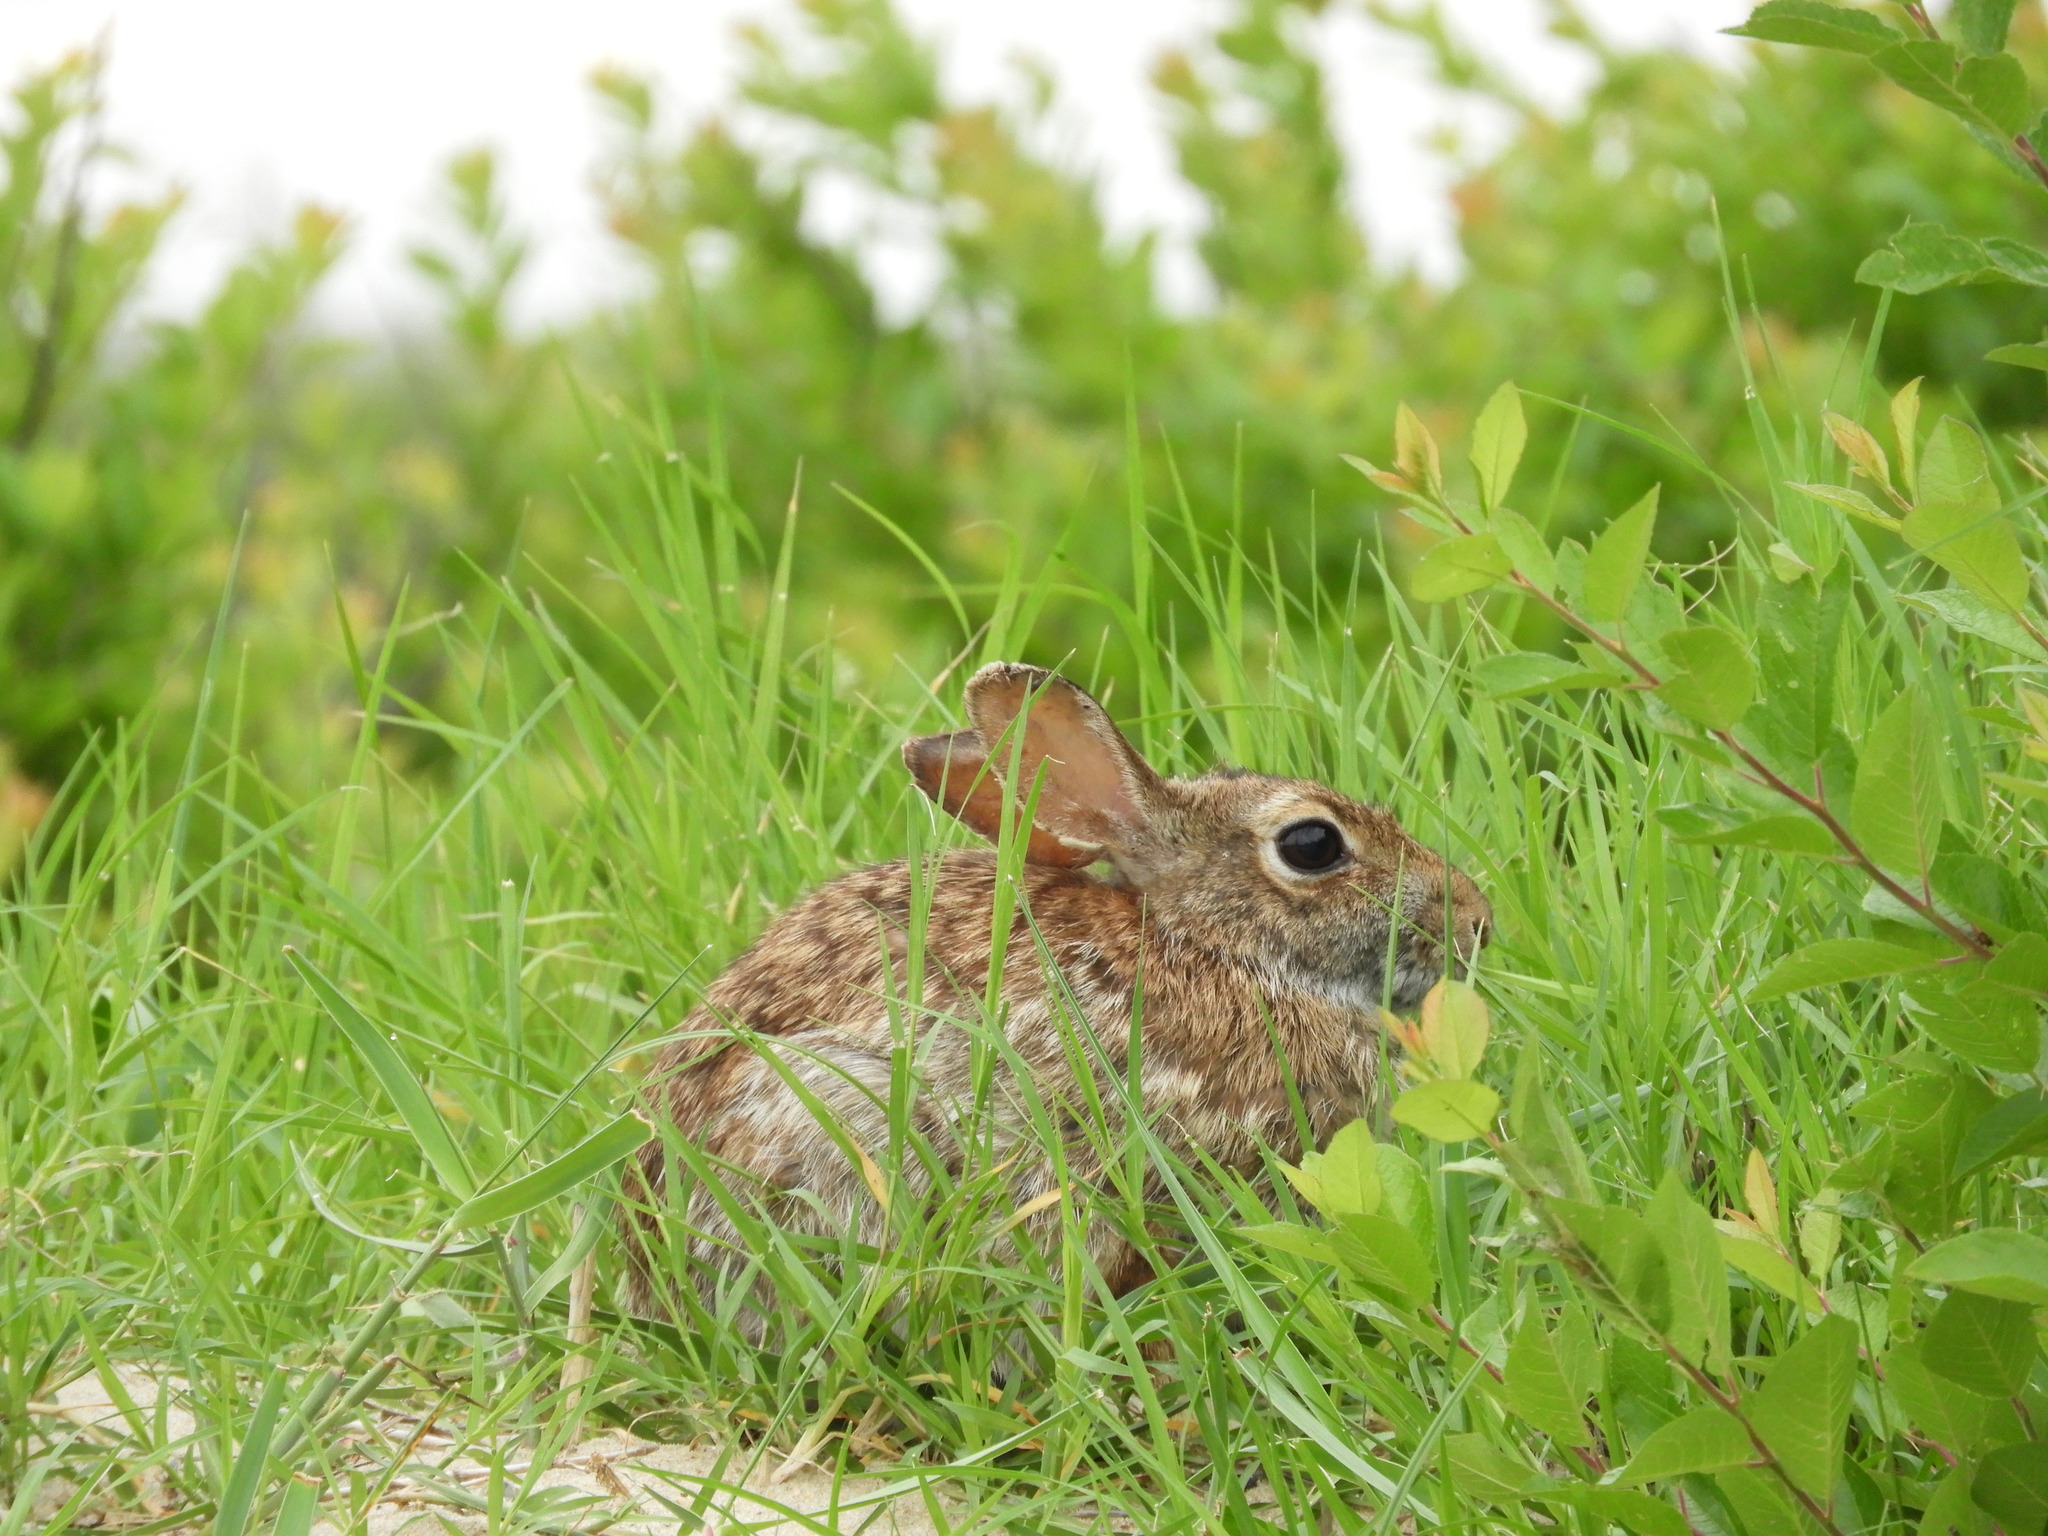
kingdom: Animalia
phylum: Chordata
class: Mammalia
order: Lagomorpha
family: Leporidae
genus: Sylvilagus
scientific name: Sylvilagus floridanus
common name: Eastern cottontail
